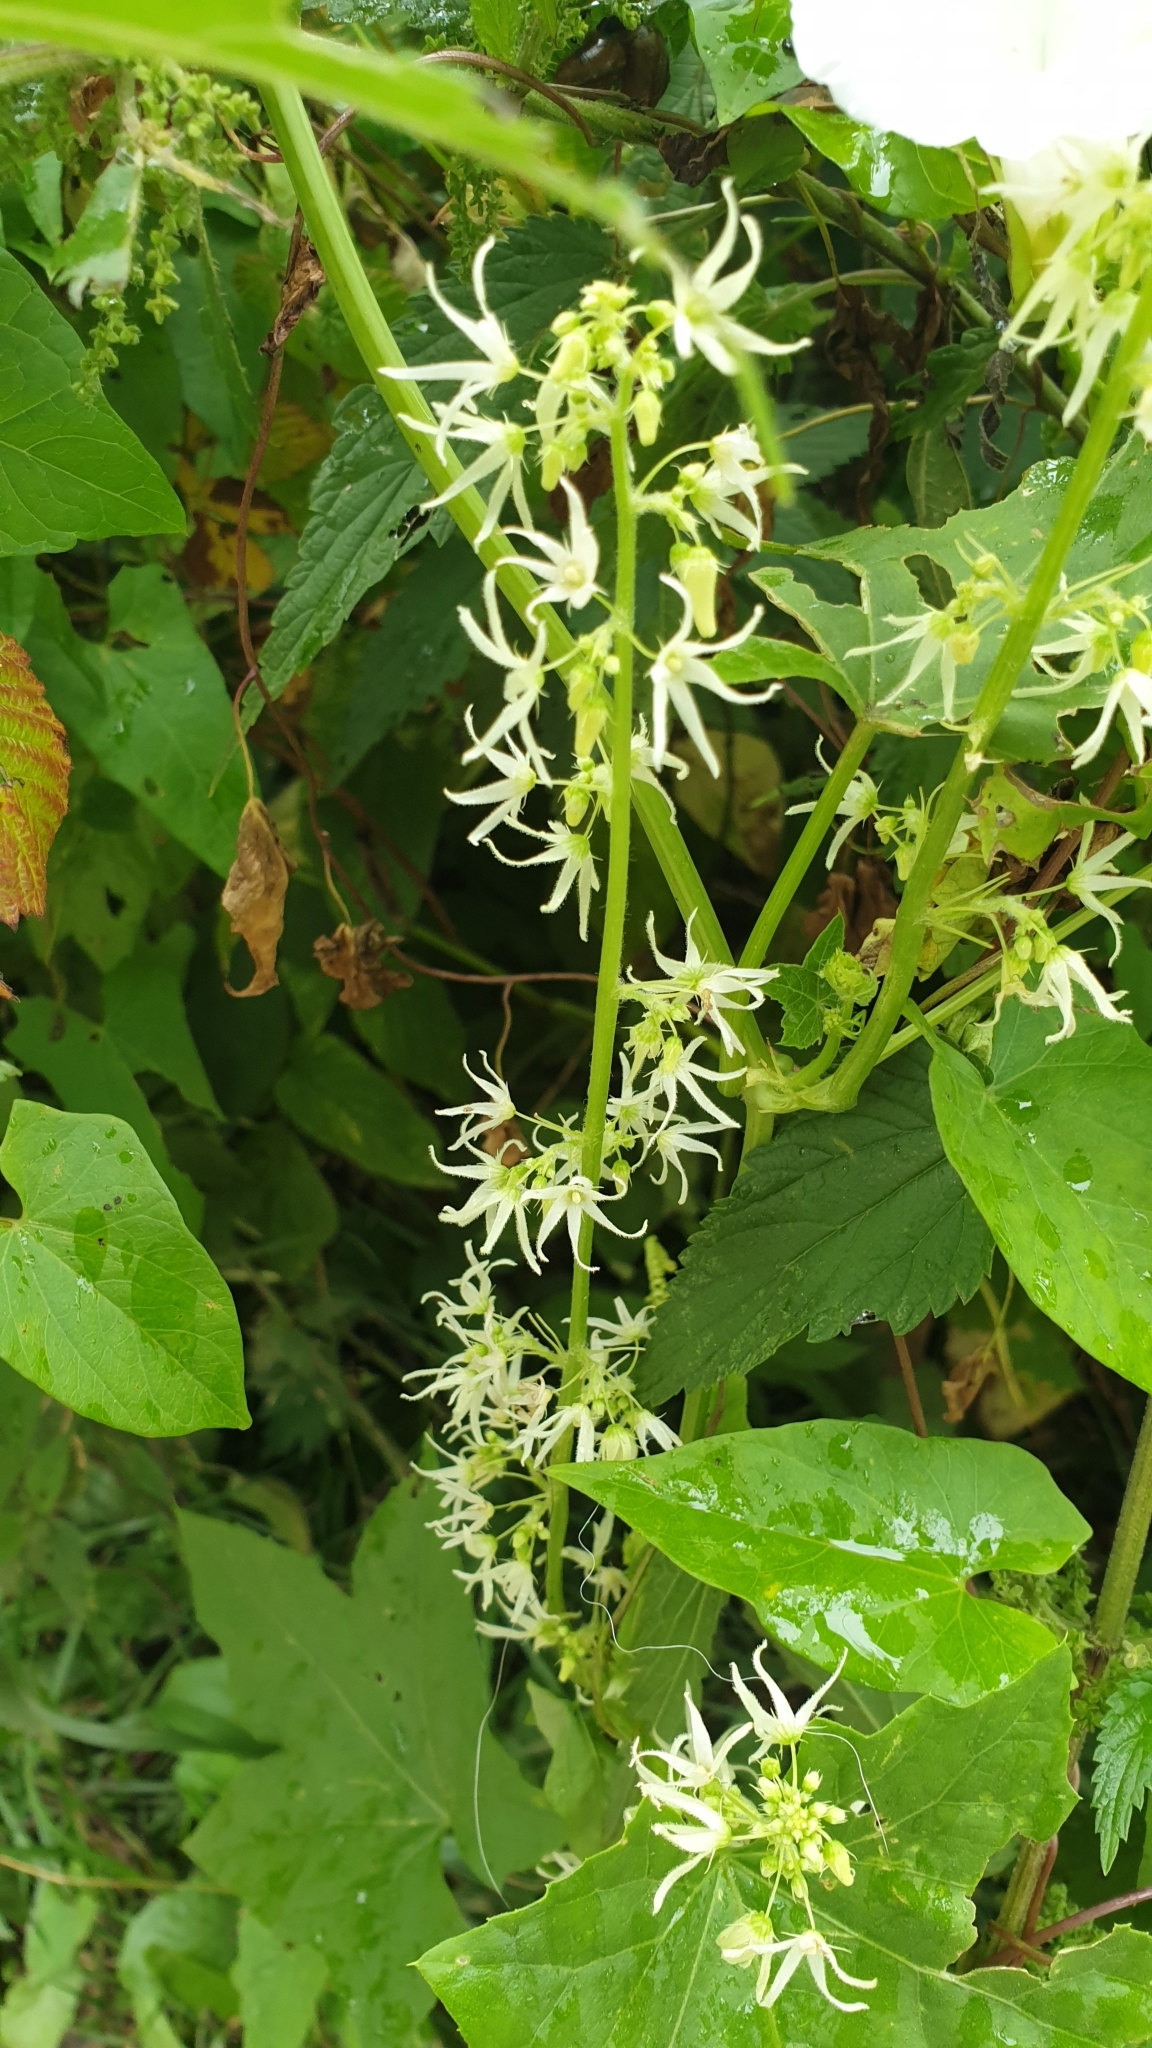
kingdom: Plantae
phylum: Tracheophyta
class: Magnoliopsida
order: Cucurbitales
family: Cucurbitaceae
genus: Echinocystis
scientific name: Echinocystis lobata
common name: Wild cucumber
